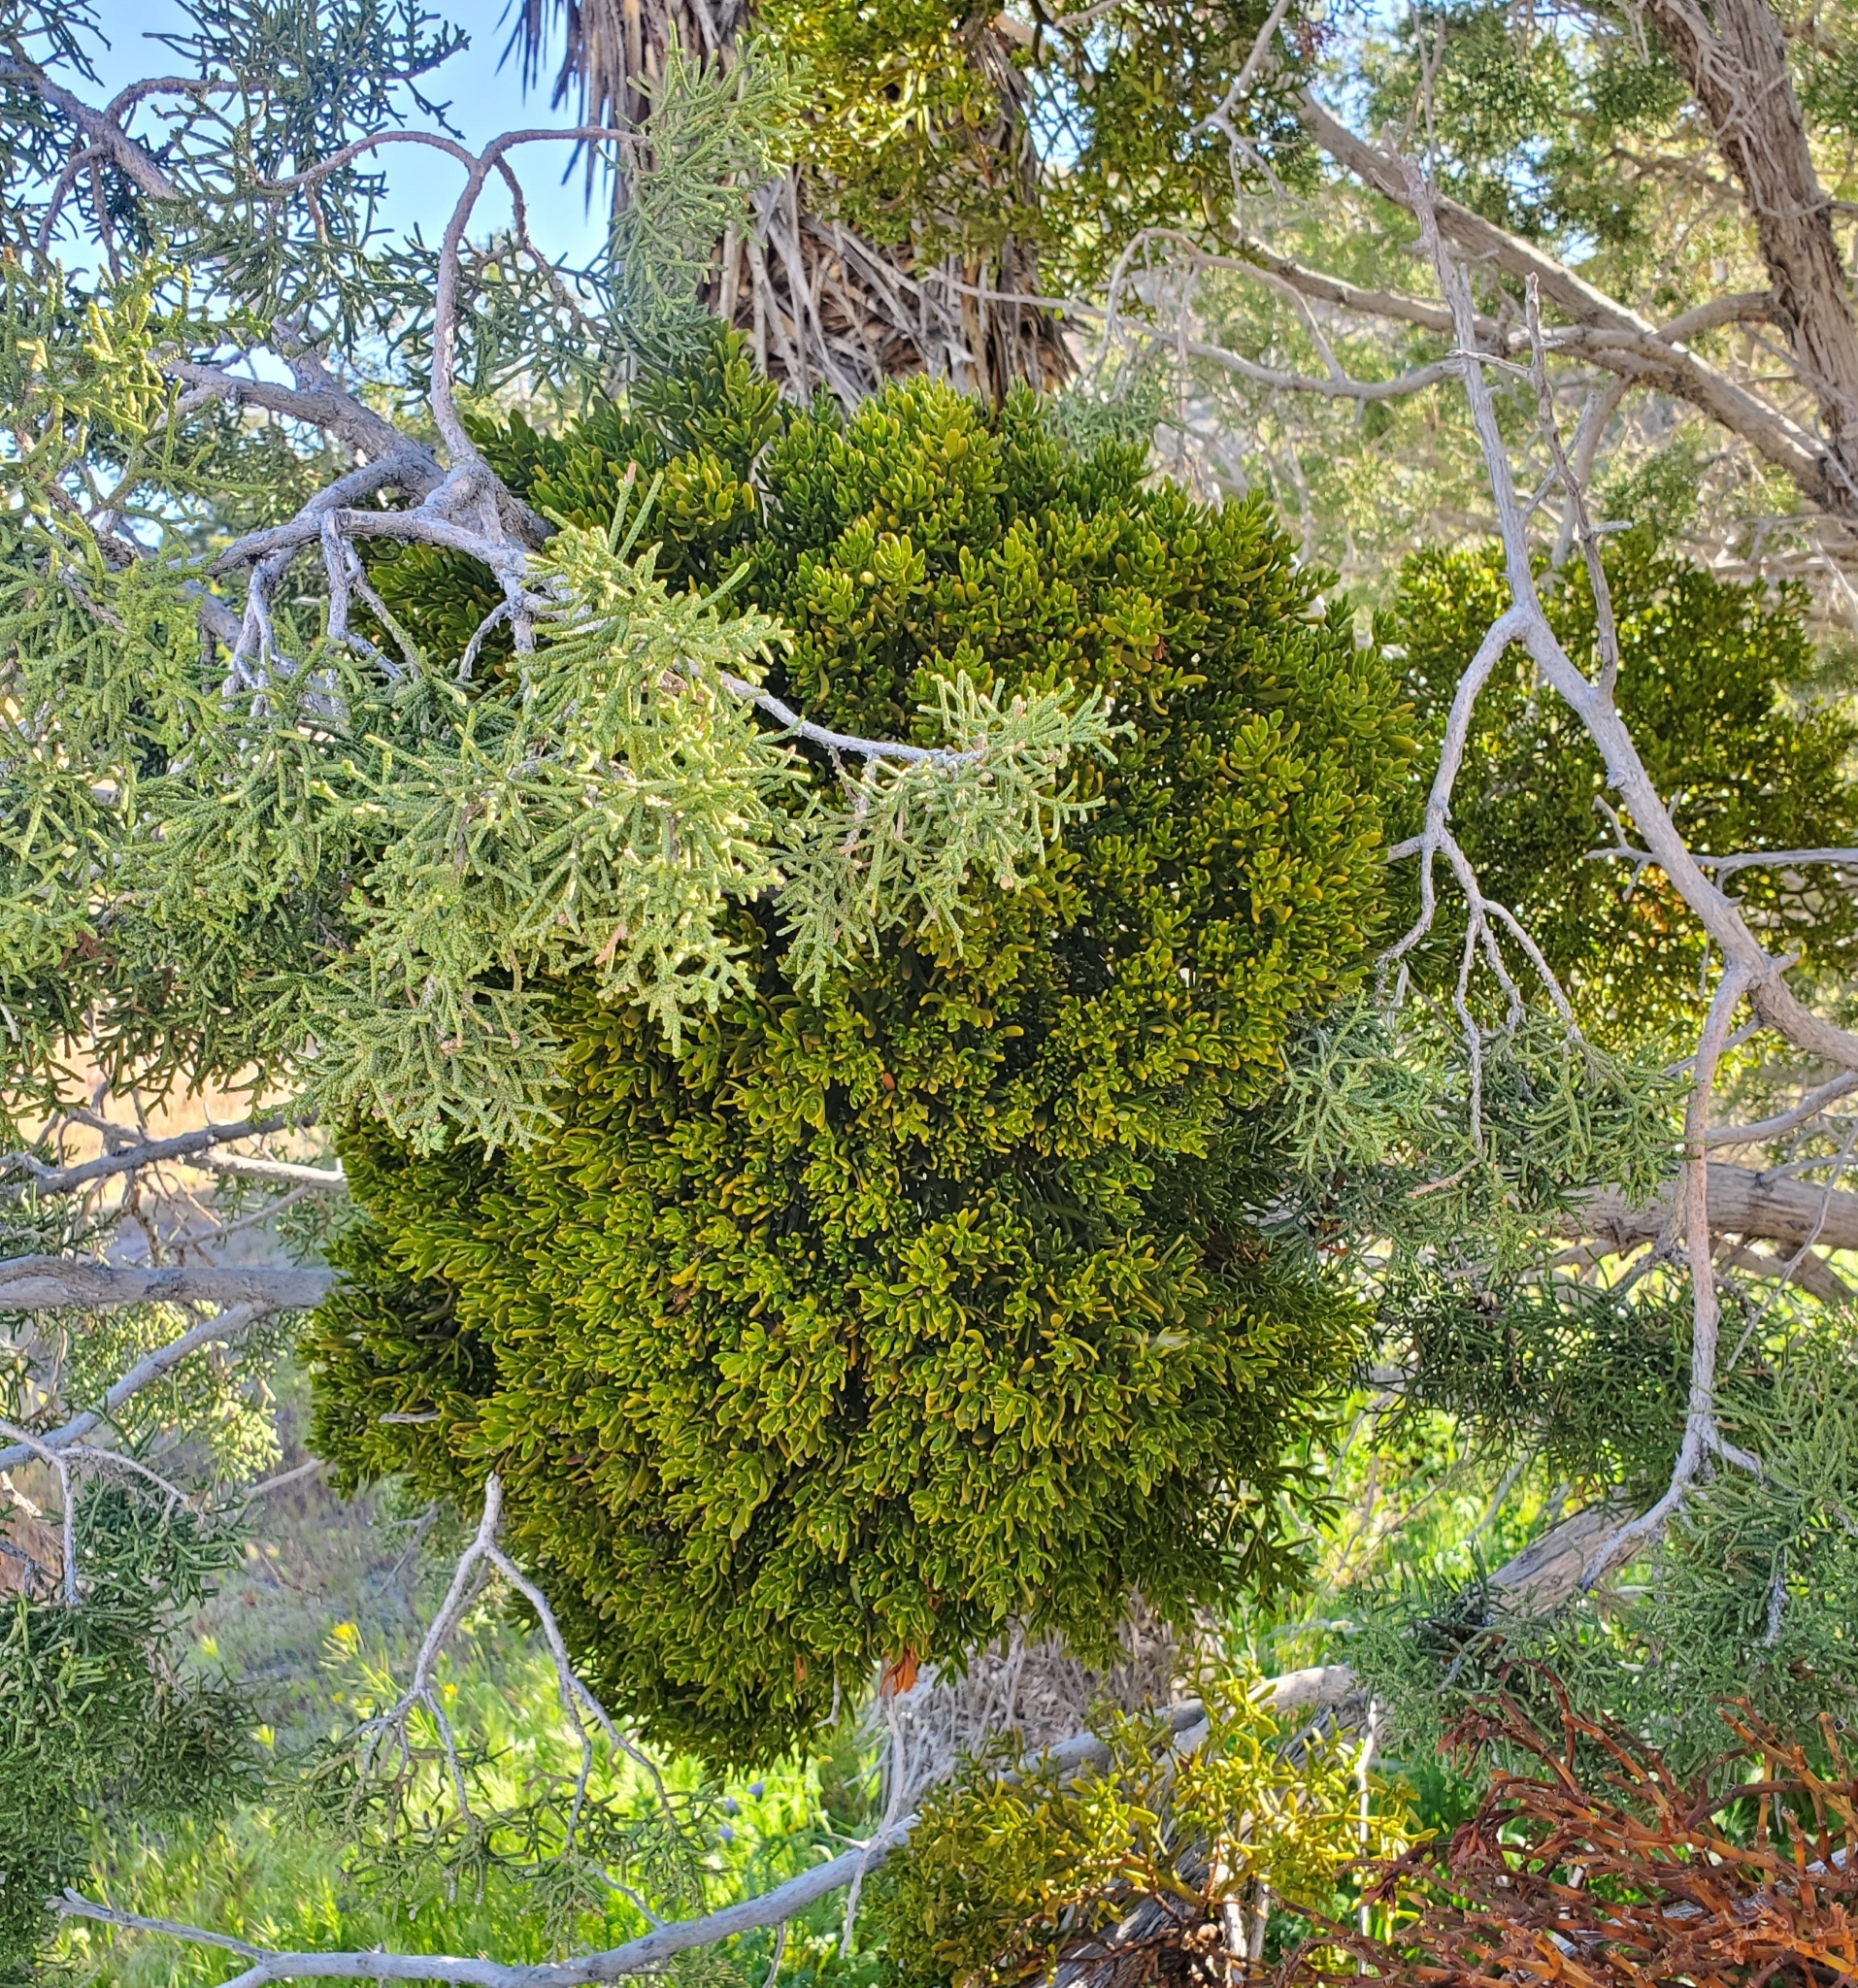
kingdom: Plantae
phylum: Tracheophyta
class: Magnoliopsida
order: Santalales
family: Viscaceae
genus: Phoradendron
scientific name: Phoradendron bolleanum
